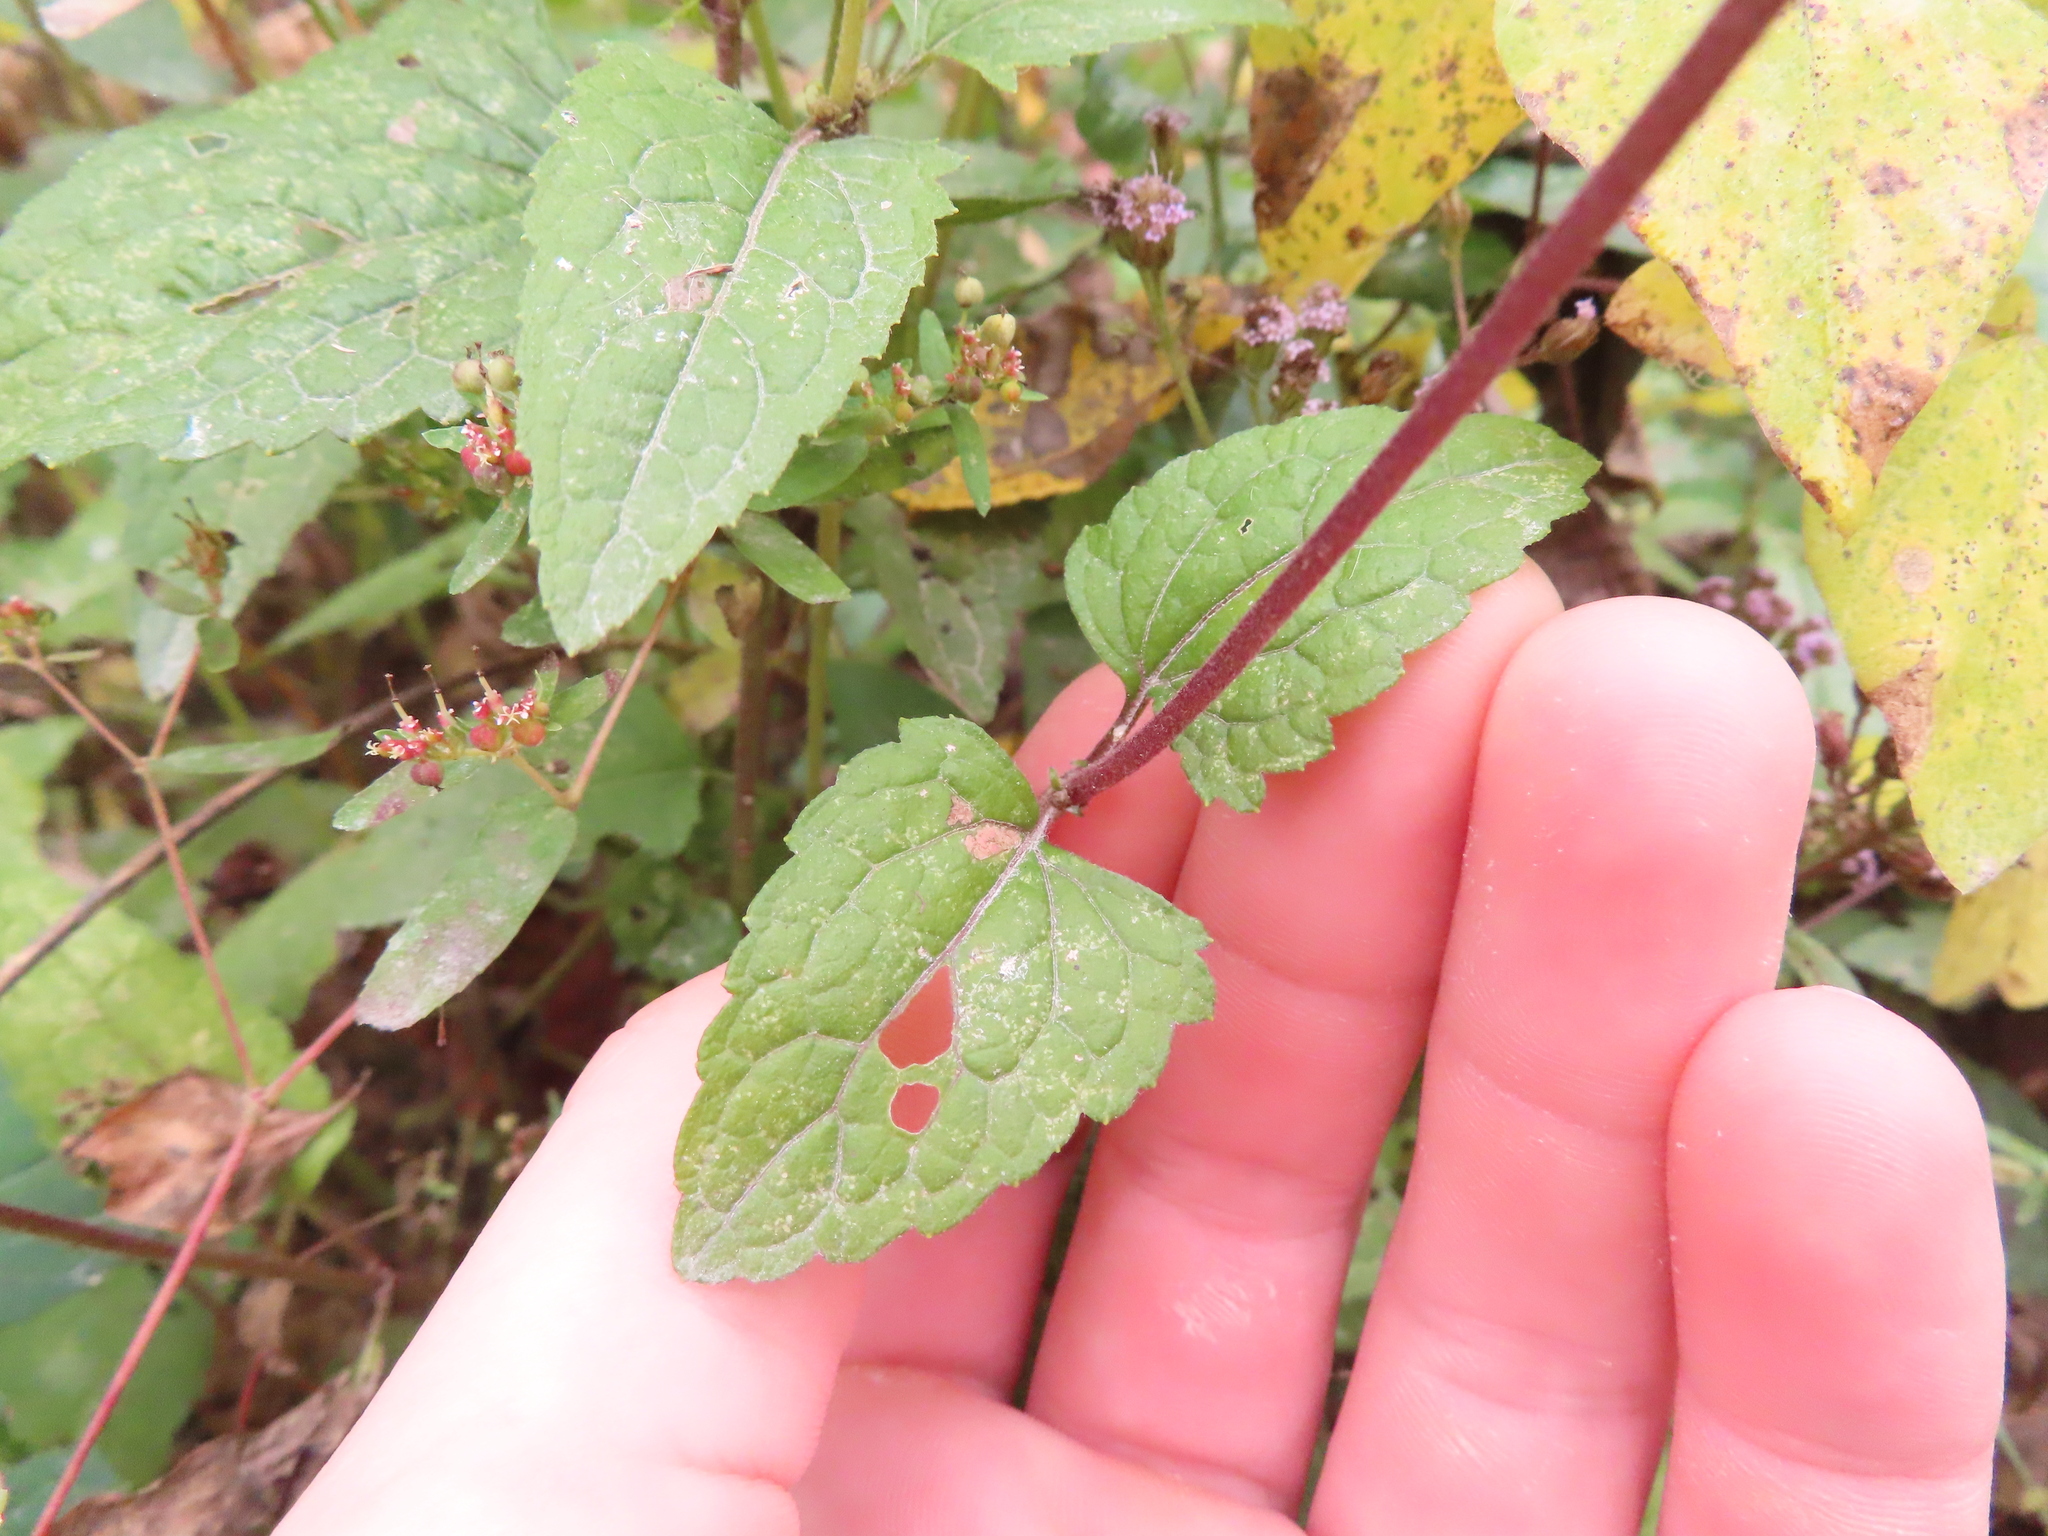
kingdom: Plantae
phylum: Tracheophyta
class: Magnoliopsida
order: Asterales
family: Asteraceae
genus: Conoclinium
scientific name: Conoclinium coelestinum
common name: Blue mistflower
